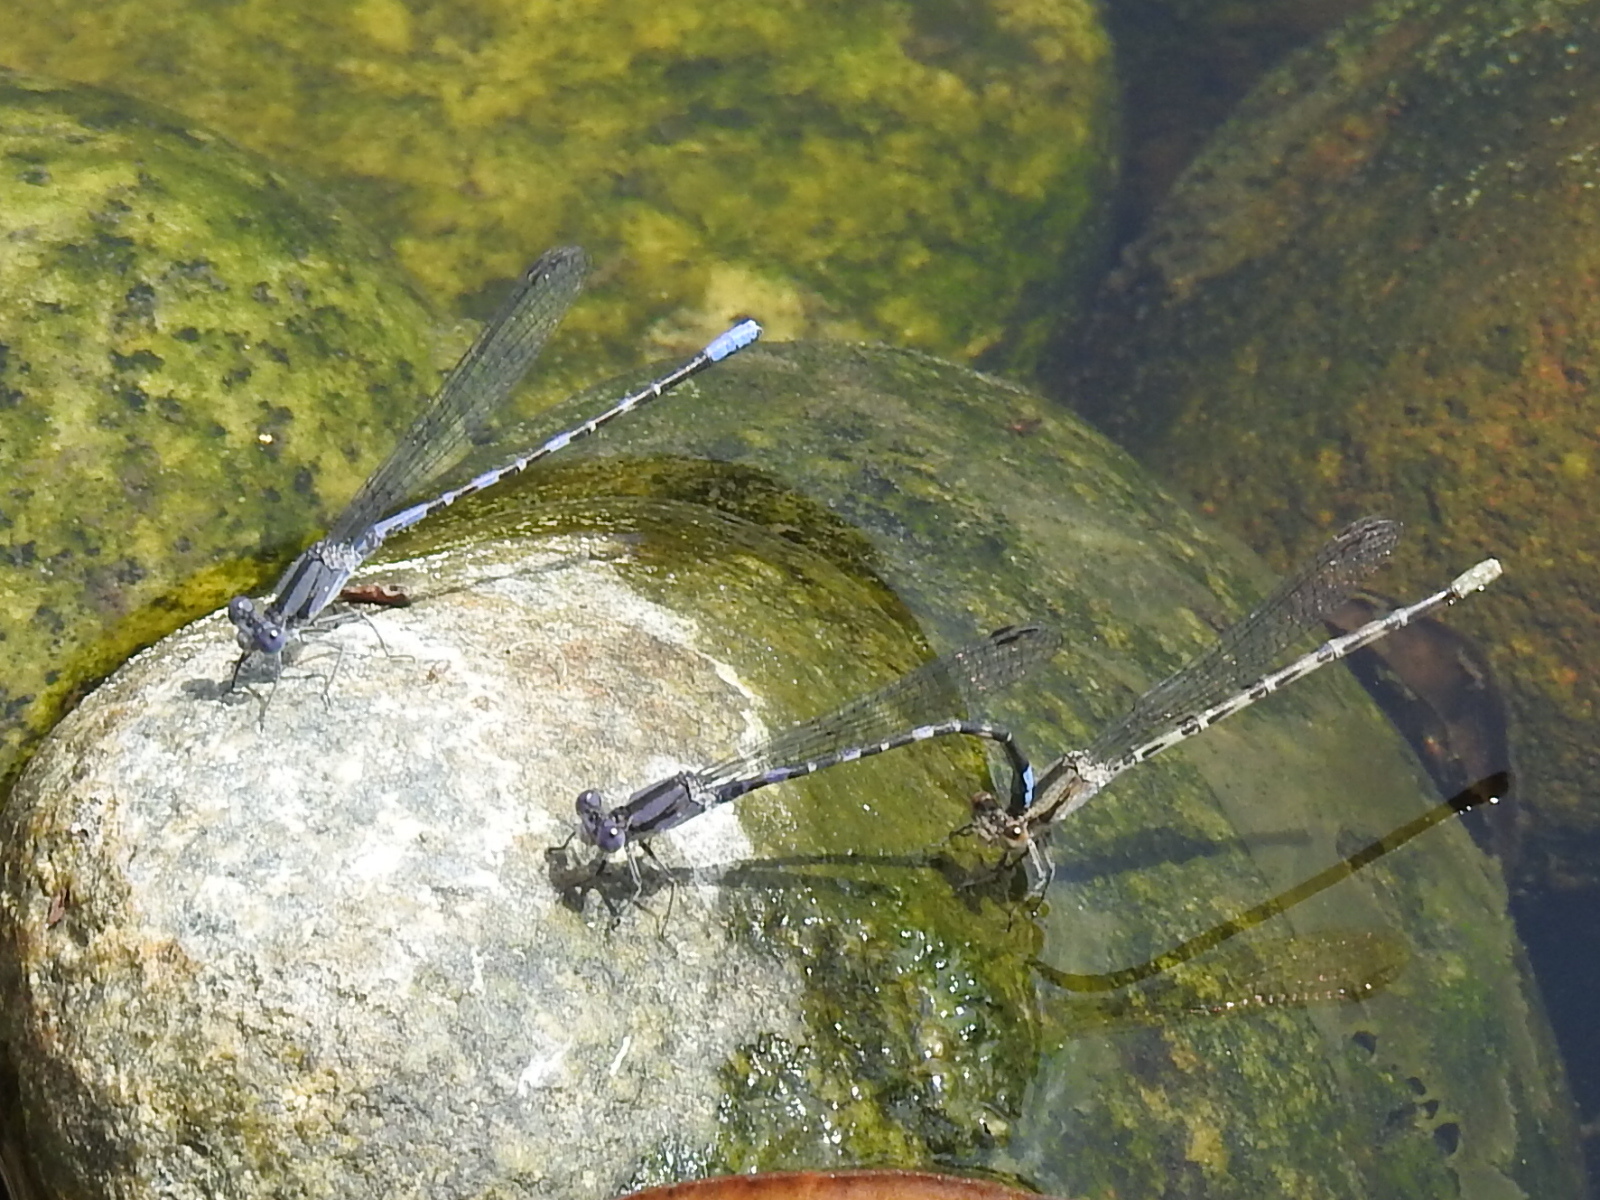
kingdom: Animalia
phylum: Arthropoda
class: Insecta
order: Odonata
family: Coenagrionidae
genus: Argia
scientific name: Argia immunda
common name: Kiowa dancer
